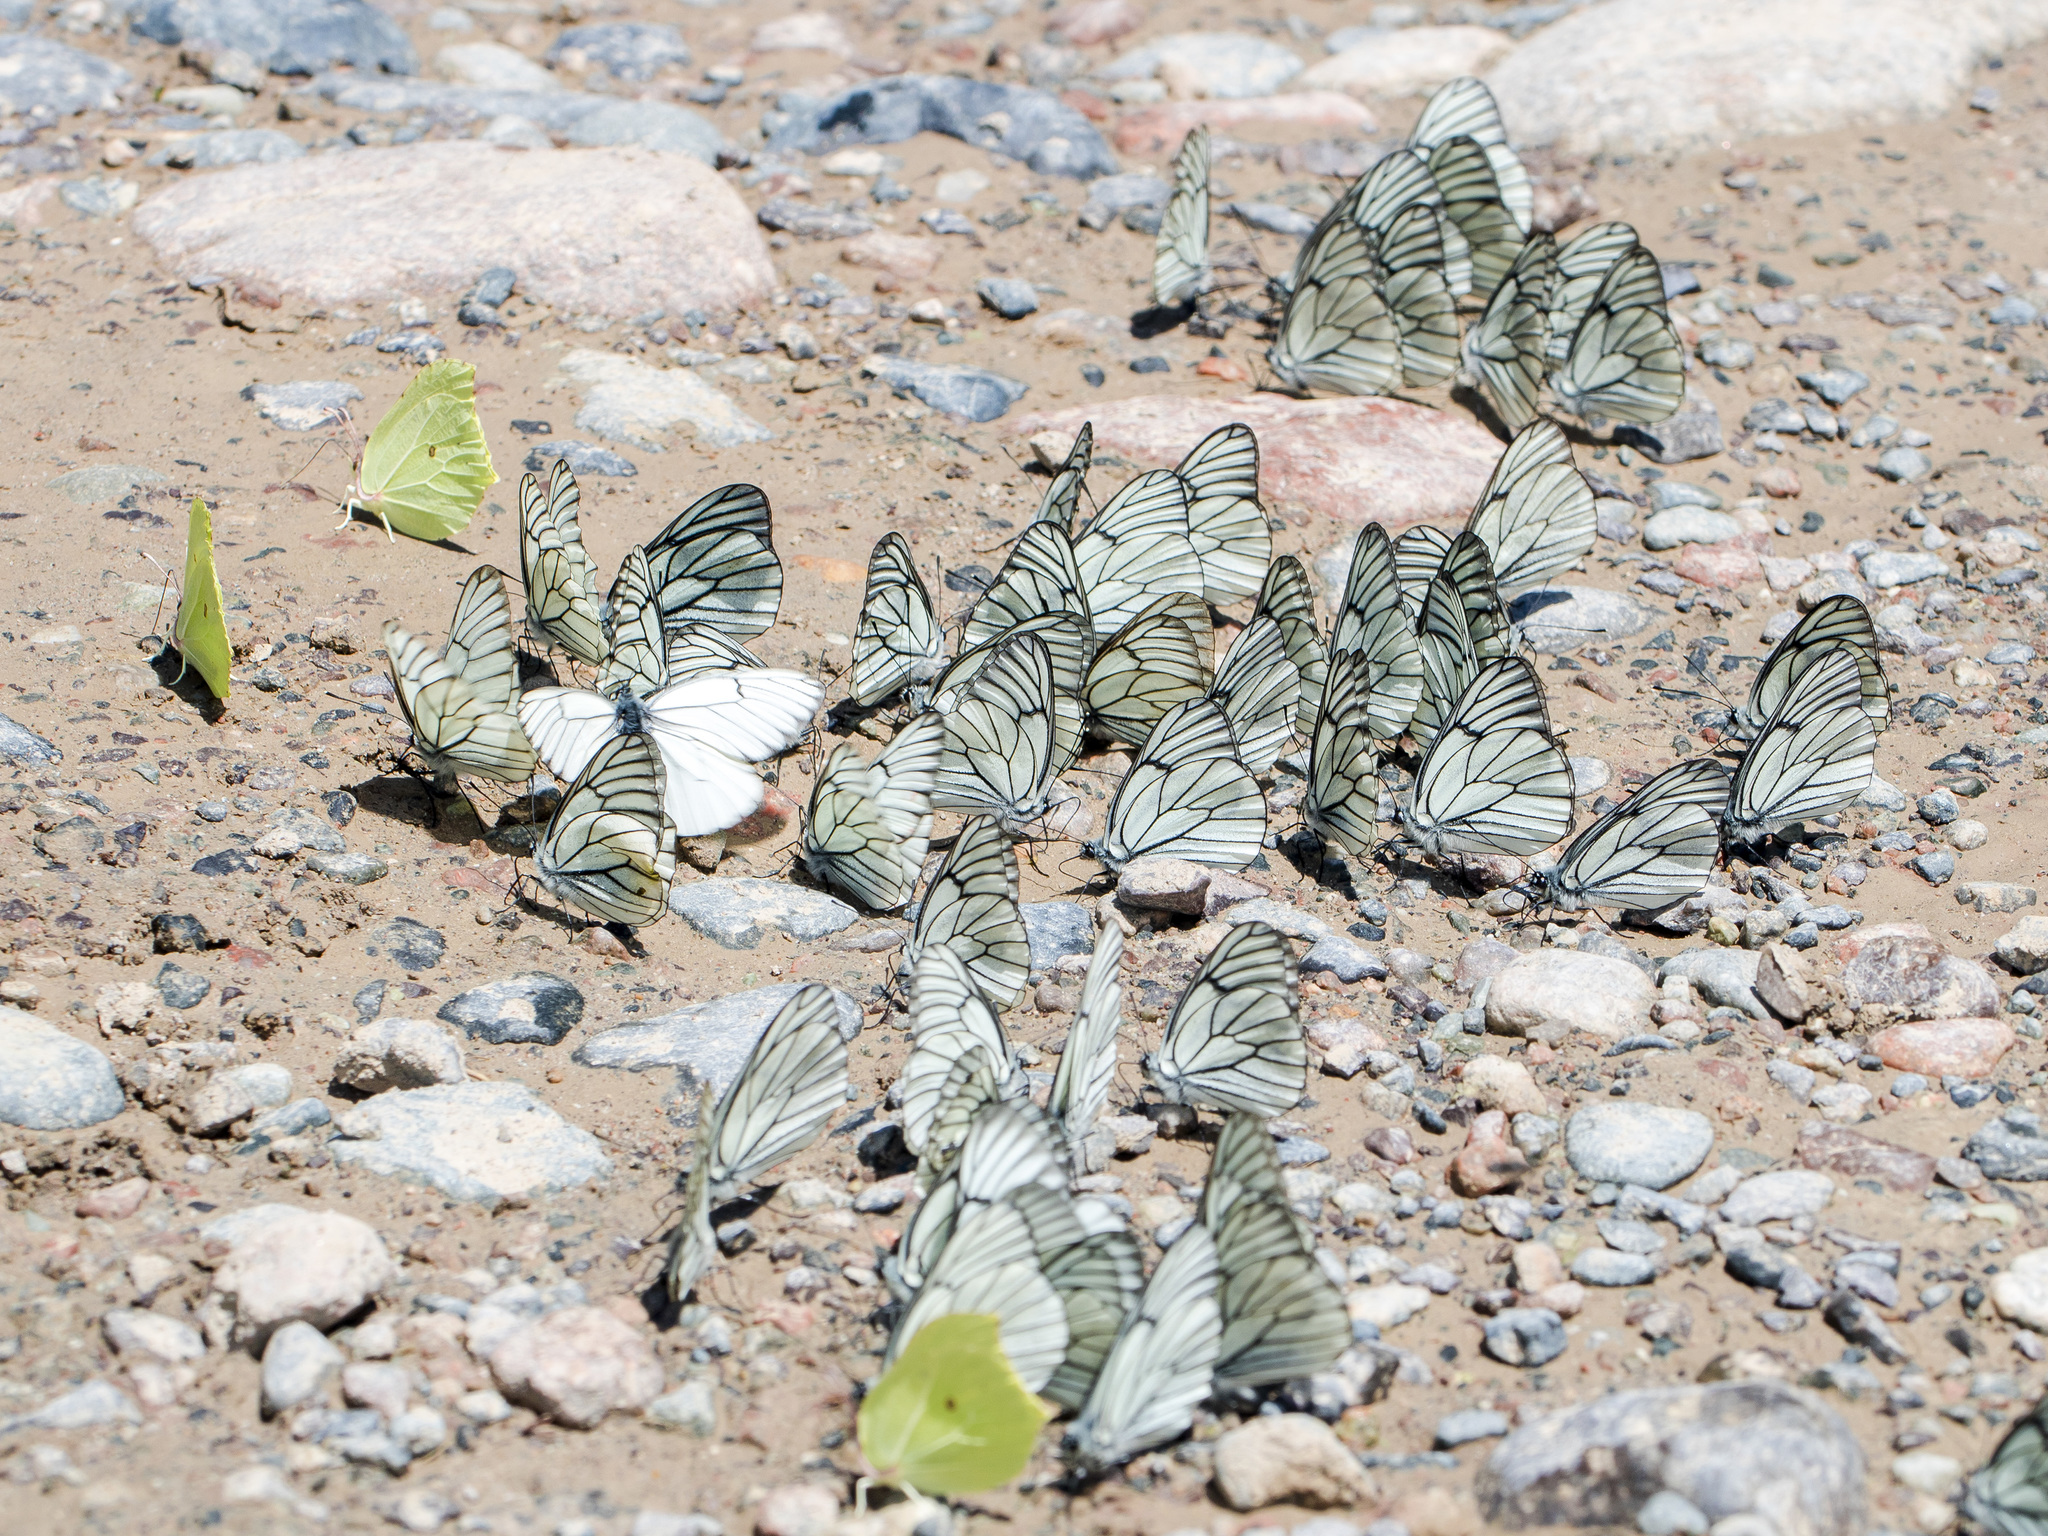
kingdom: Animalia
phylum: Arthropoda
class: Insecta
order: Lepidoptera
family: Pieridae
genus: Gonepteryx
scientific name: Gonepteryx rhamni
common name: Brimstone
